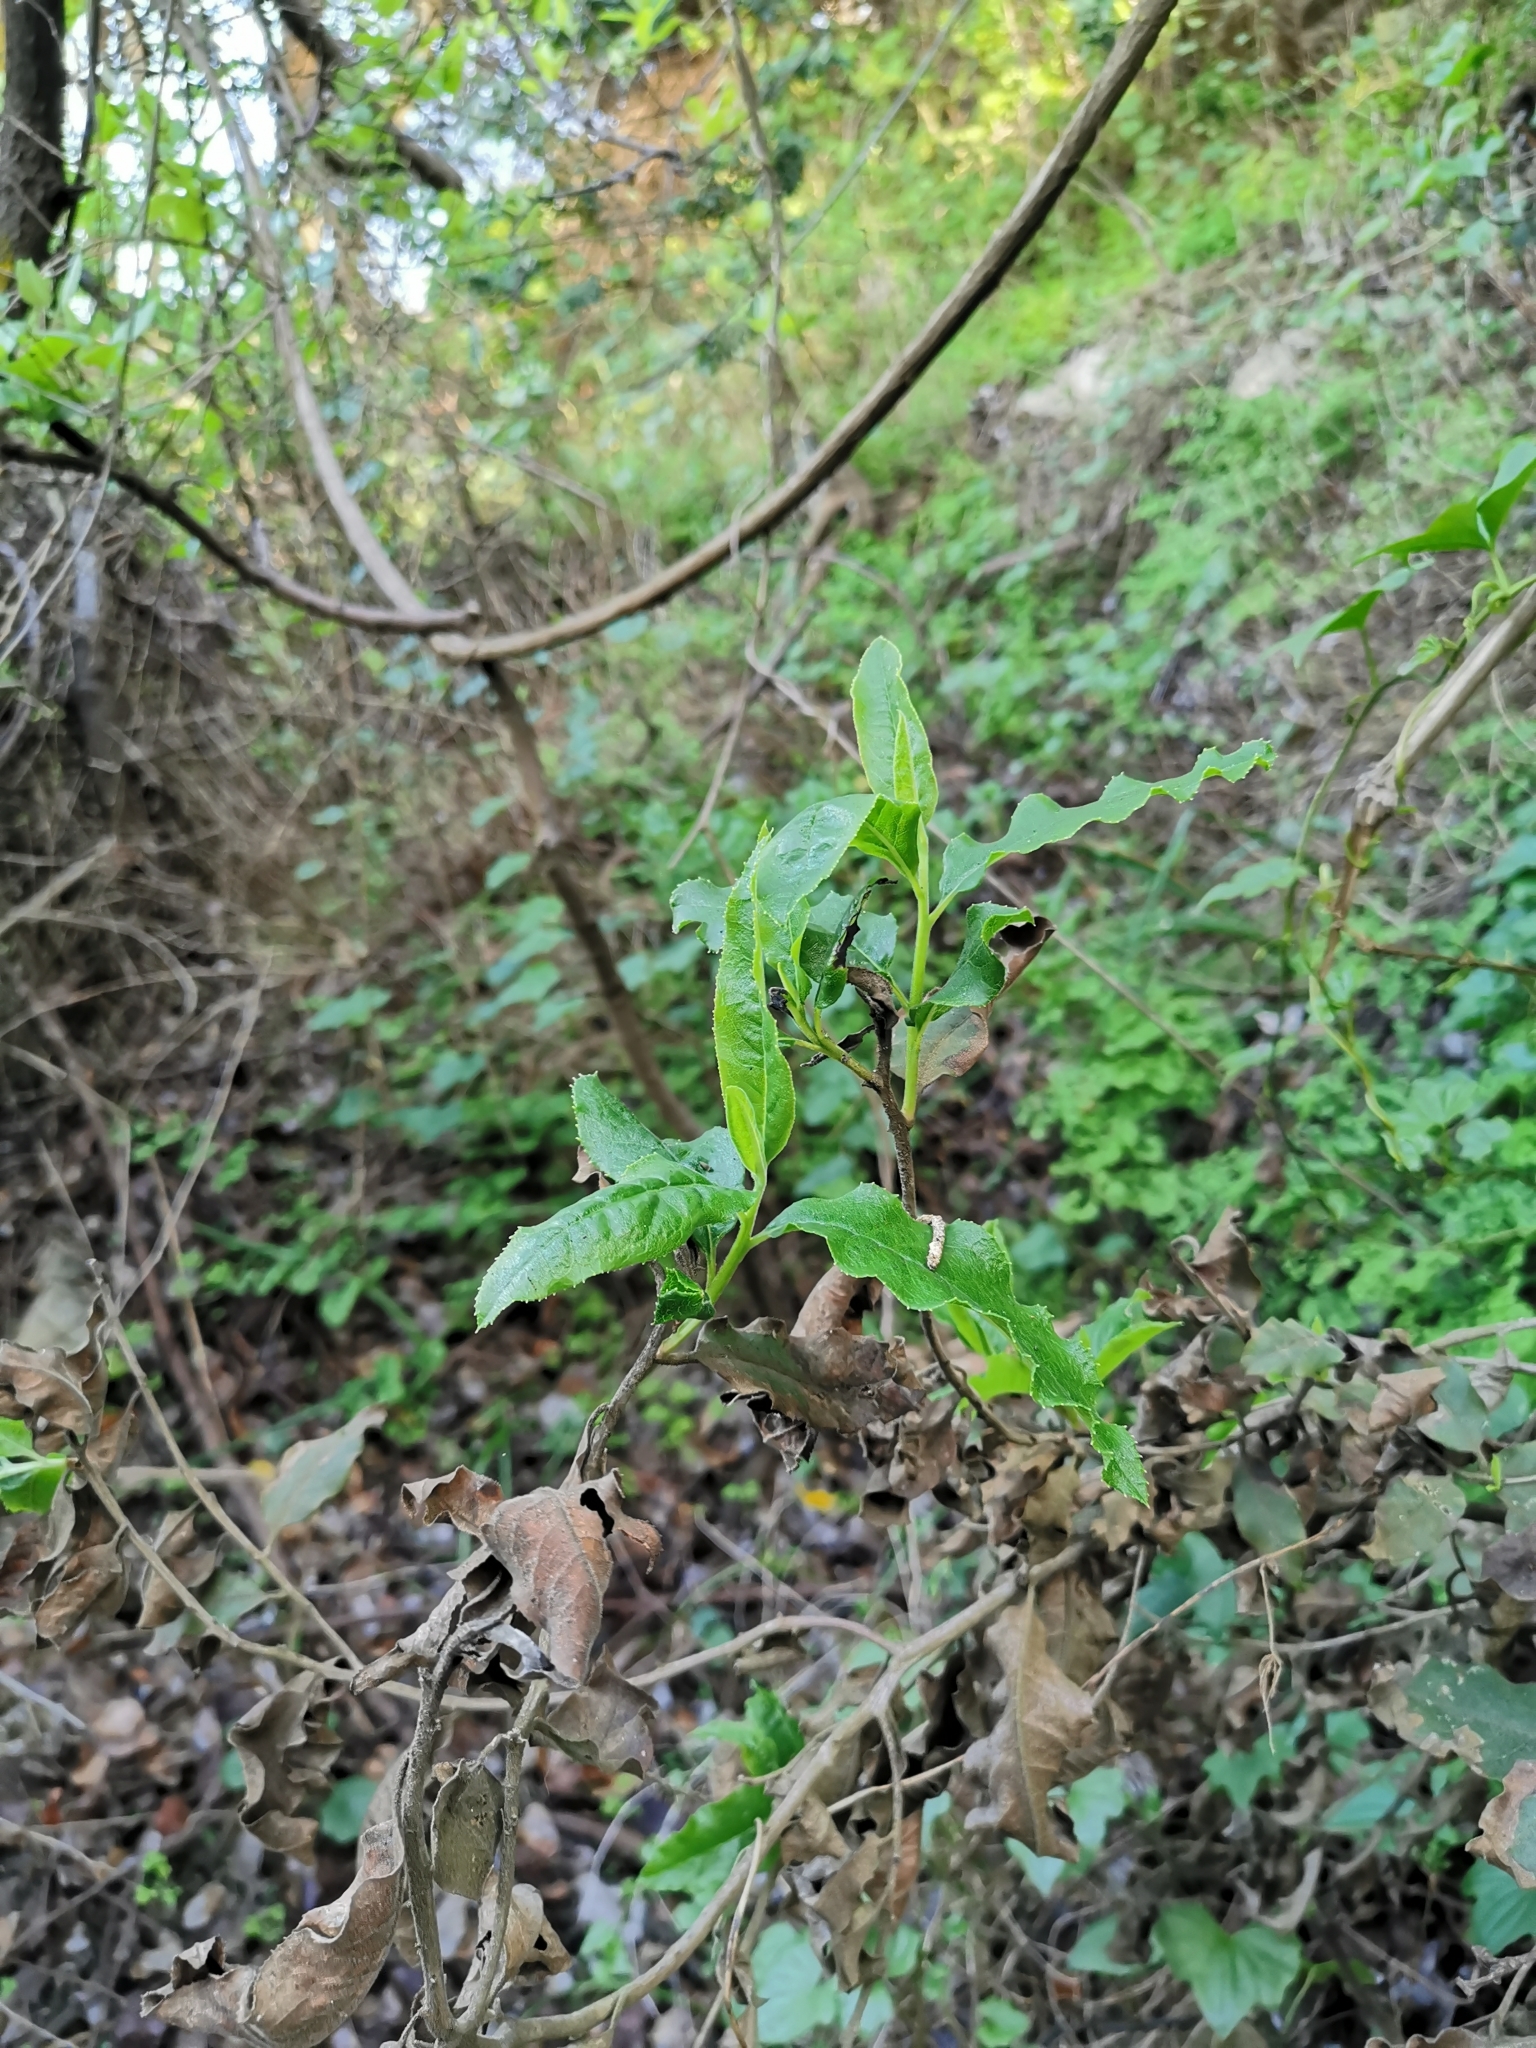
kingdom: Plantae
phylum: Tracheophyta
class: Magnoliopsida
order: Escalloniales
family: Escalloniaceae
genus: Escallonia
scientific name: Escallonia pulverulenta
